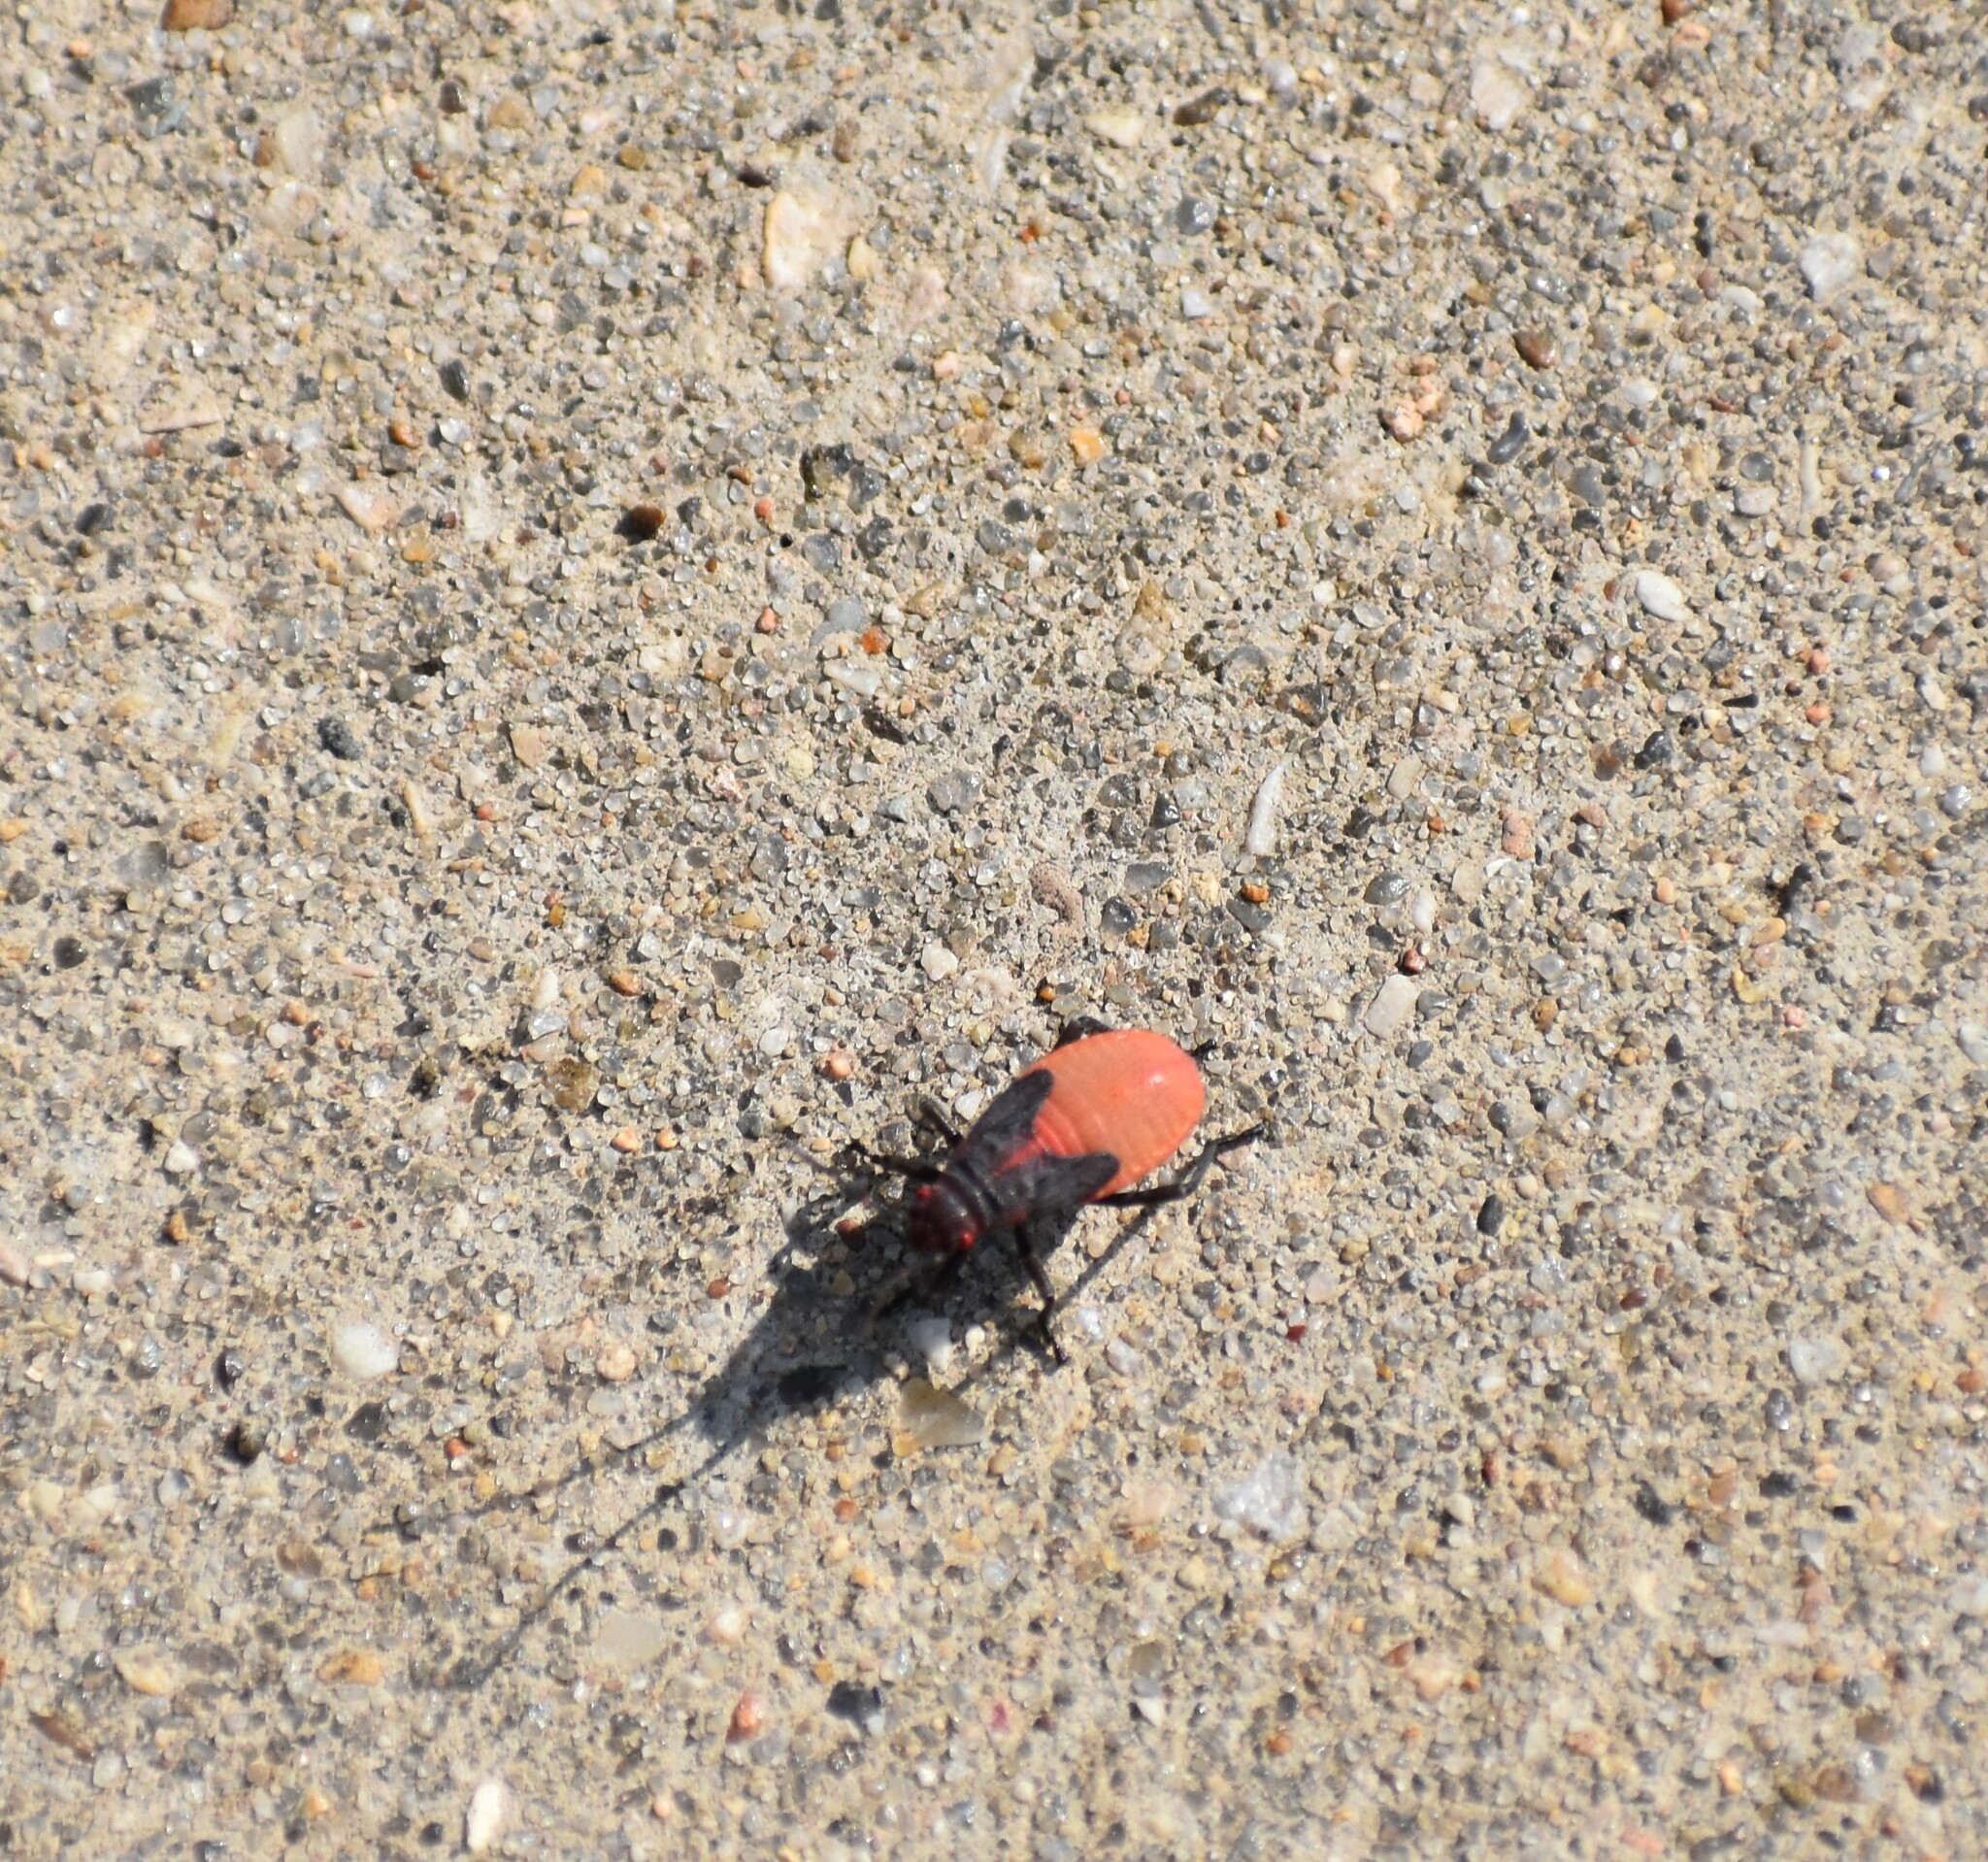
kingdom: Animalia
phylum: Arthropoda
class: Insecta
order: Hemiptera
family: Rhopalidae
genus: Jadera
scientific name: Jadera haematoloma
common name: Red-shouldered bug
